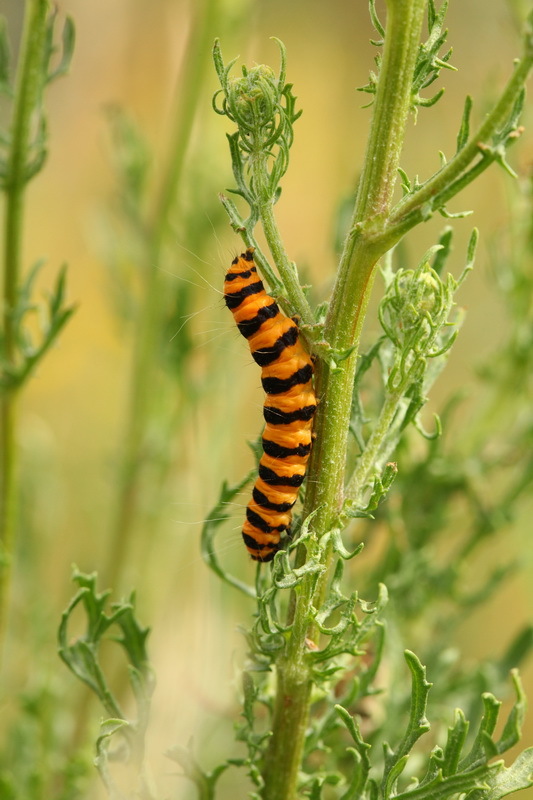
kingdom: Animalia
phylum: Arthropoda
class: Insecta
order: Lepidoptera
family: Erebidae
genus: Tyria
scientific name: Tyria jacobaeae
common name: Cinnabar
